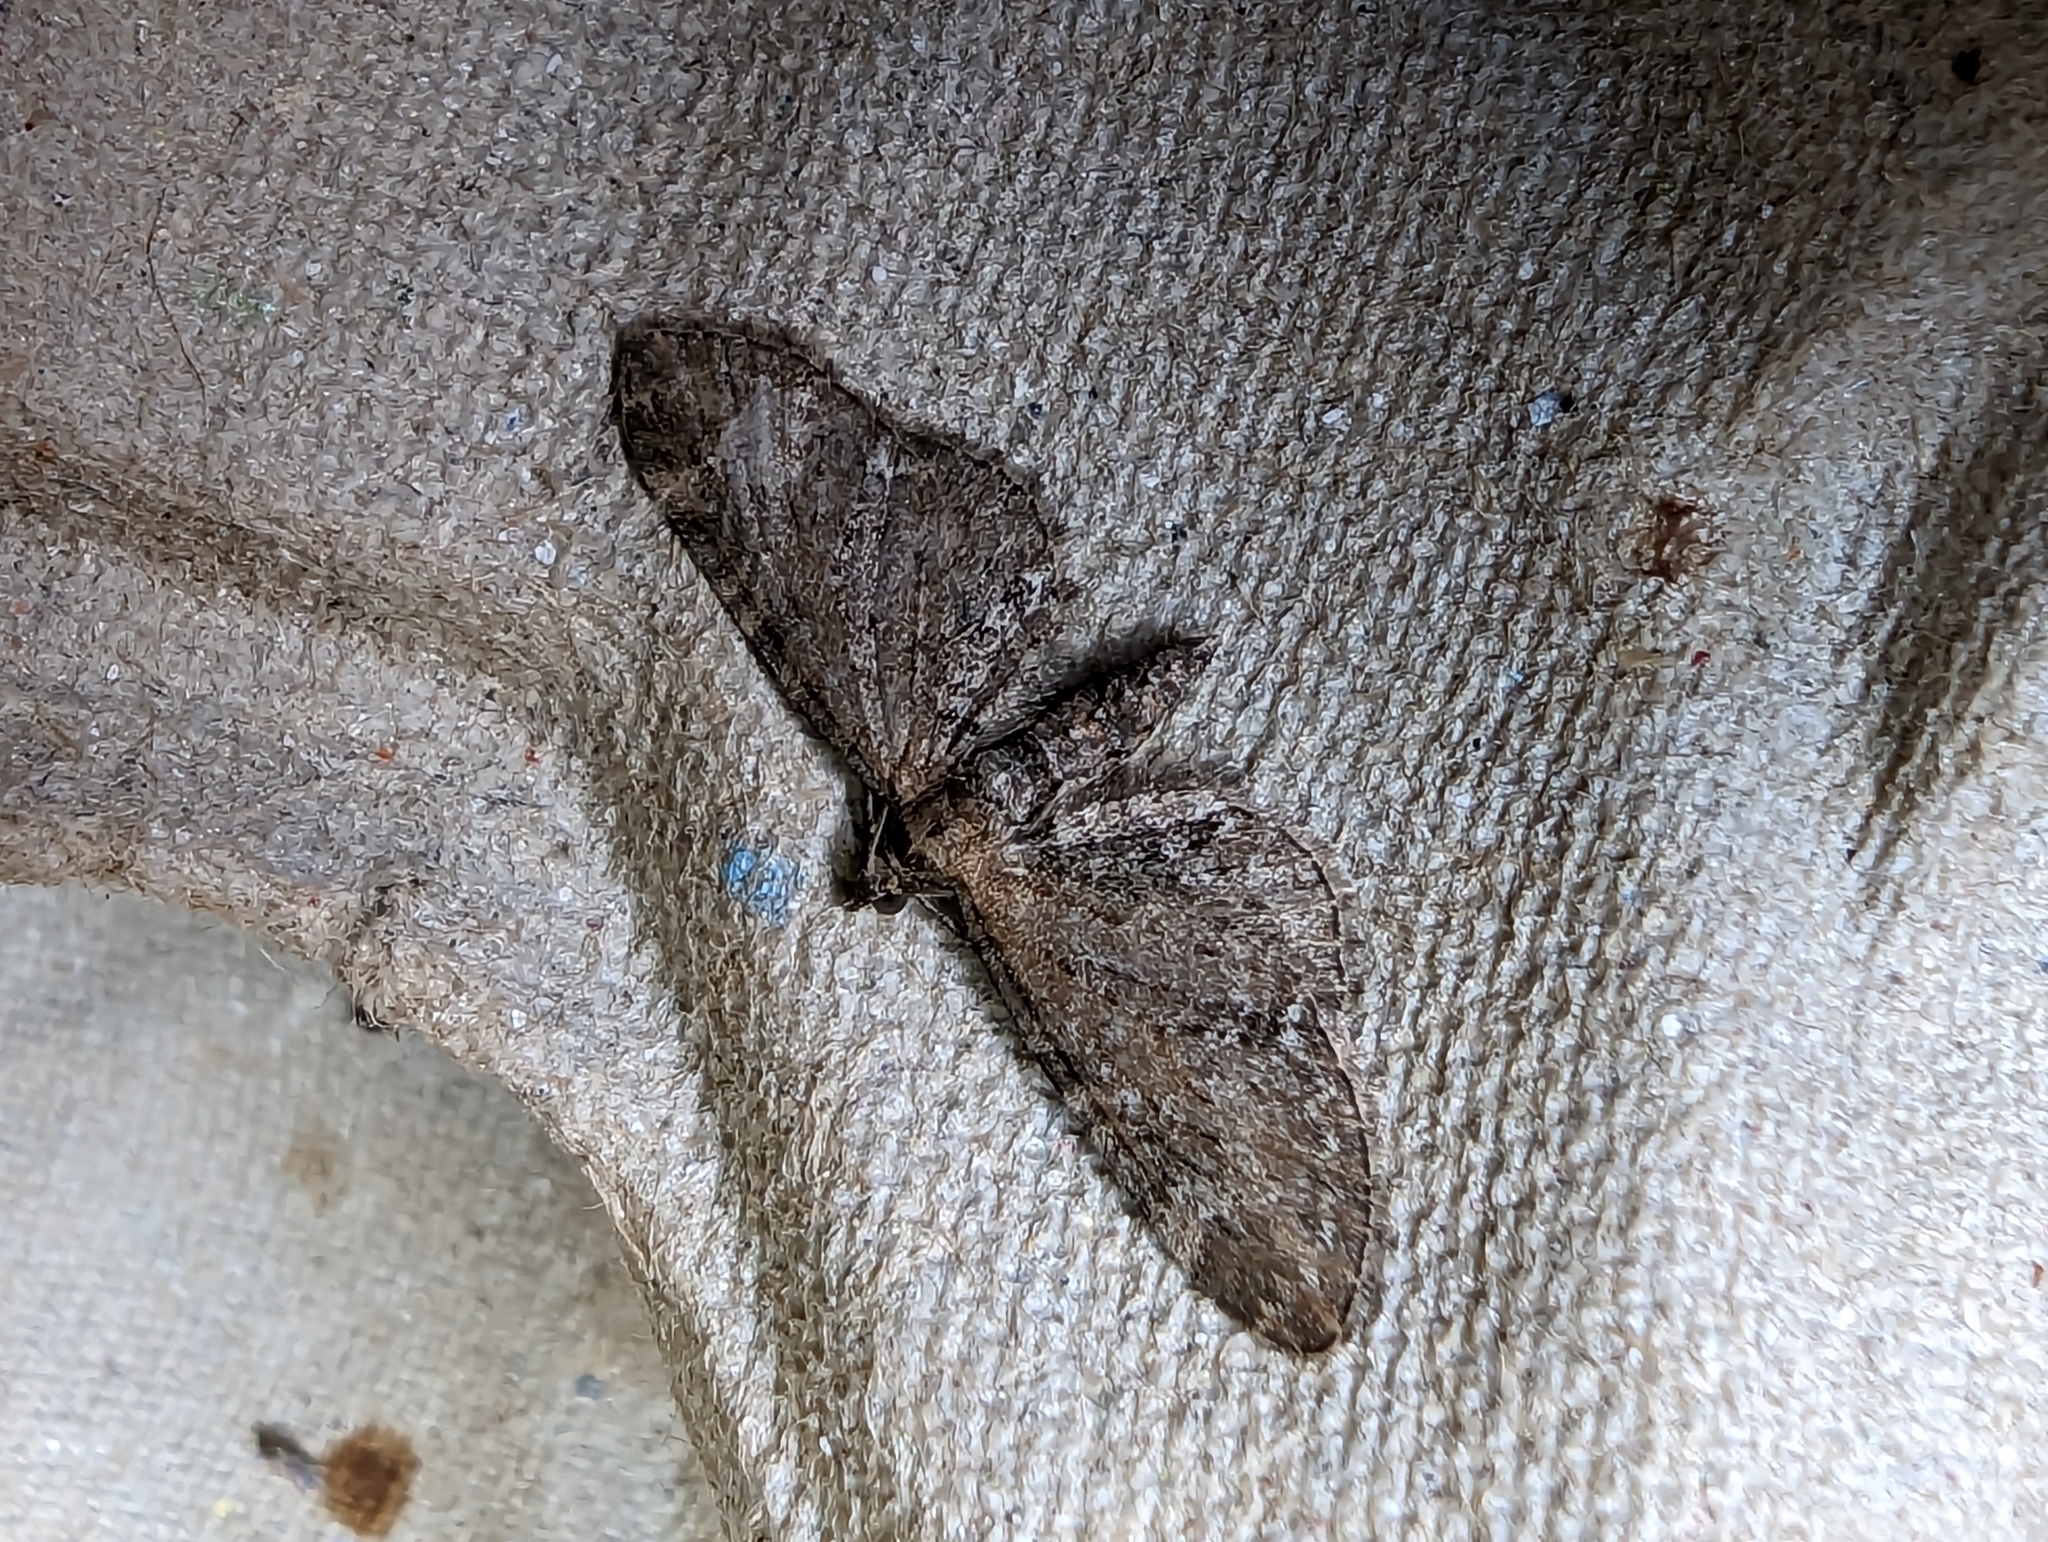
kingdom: Animalia
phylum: Arthropoda
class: Insecta
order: Lepidoptera
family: Geometridae
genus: Eupithecia
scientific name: Eupithecia vulgata
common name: Common pug
